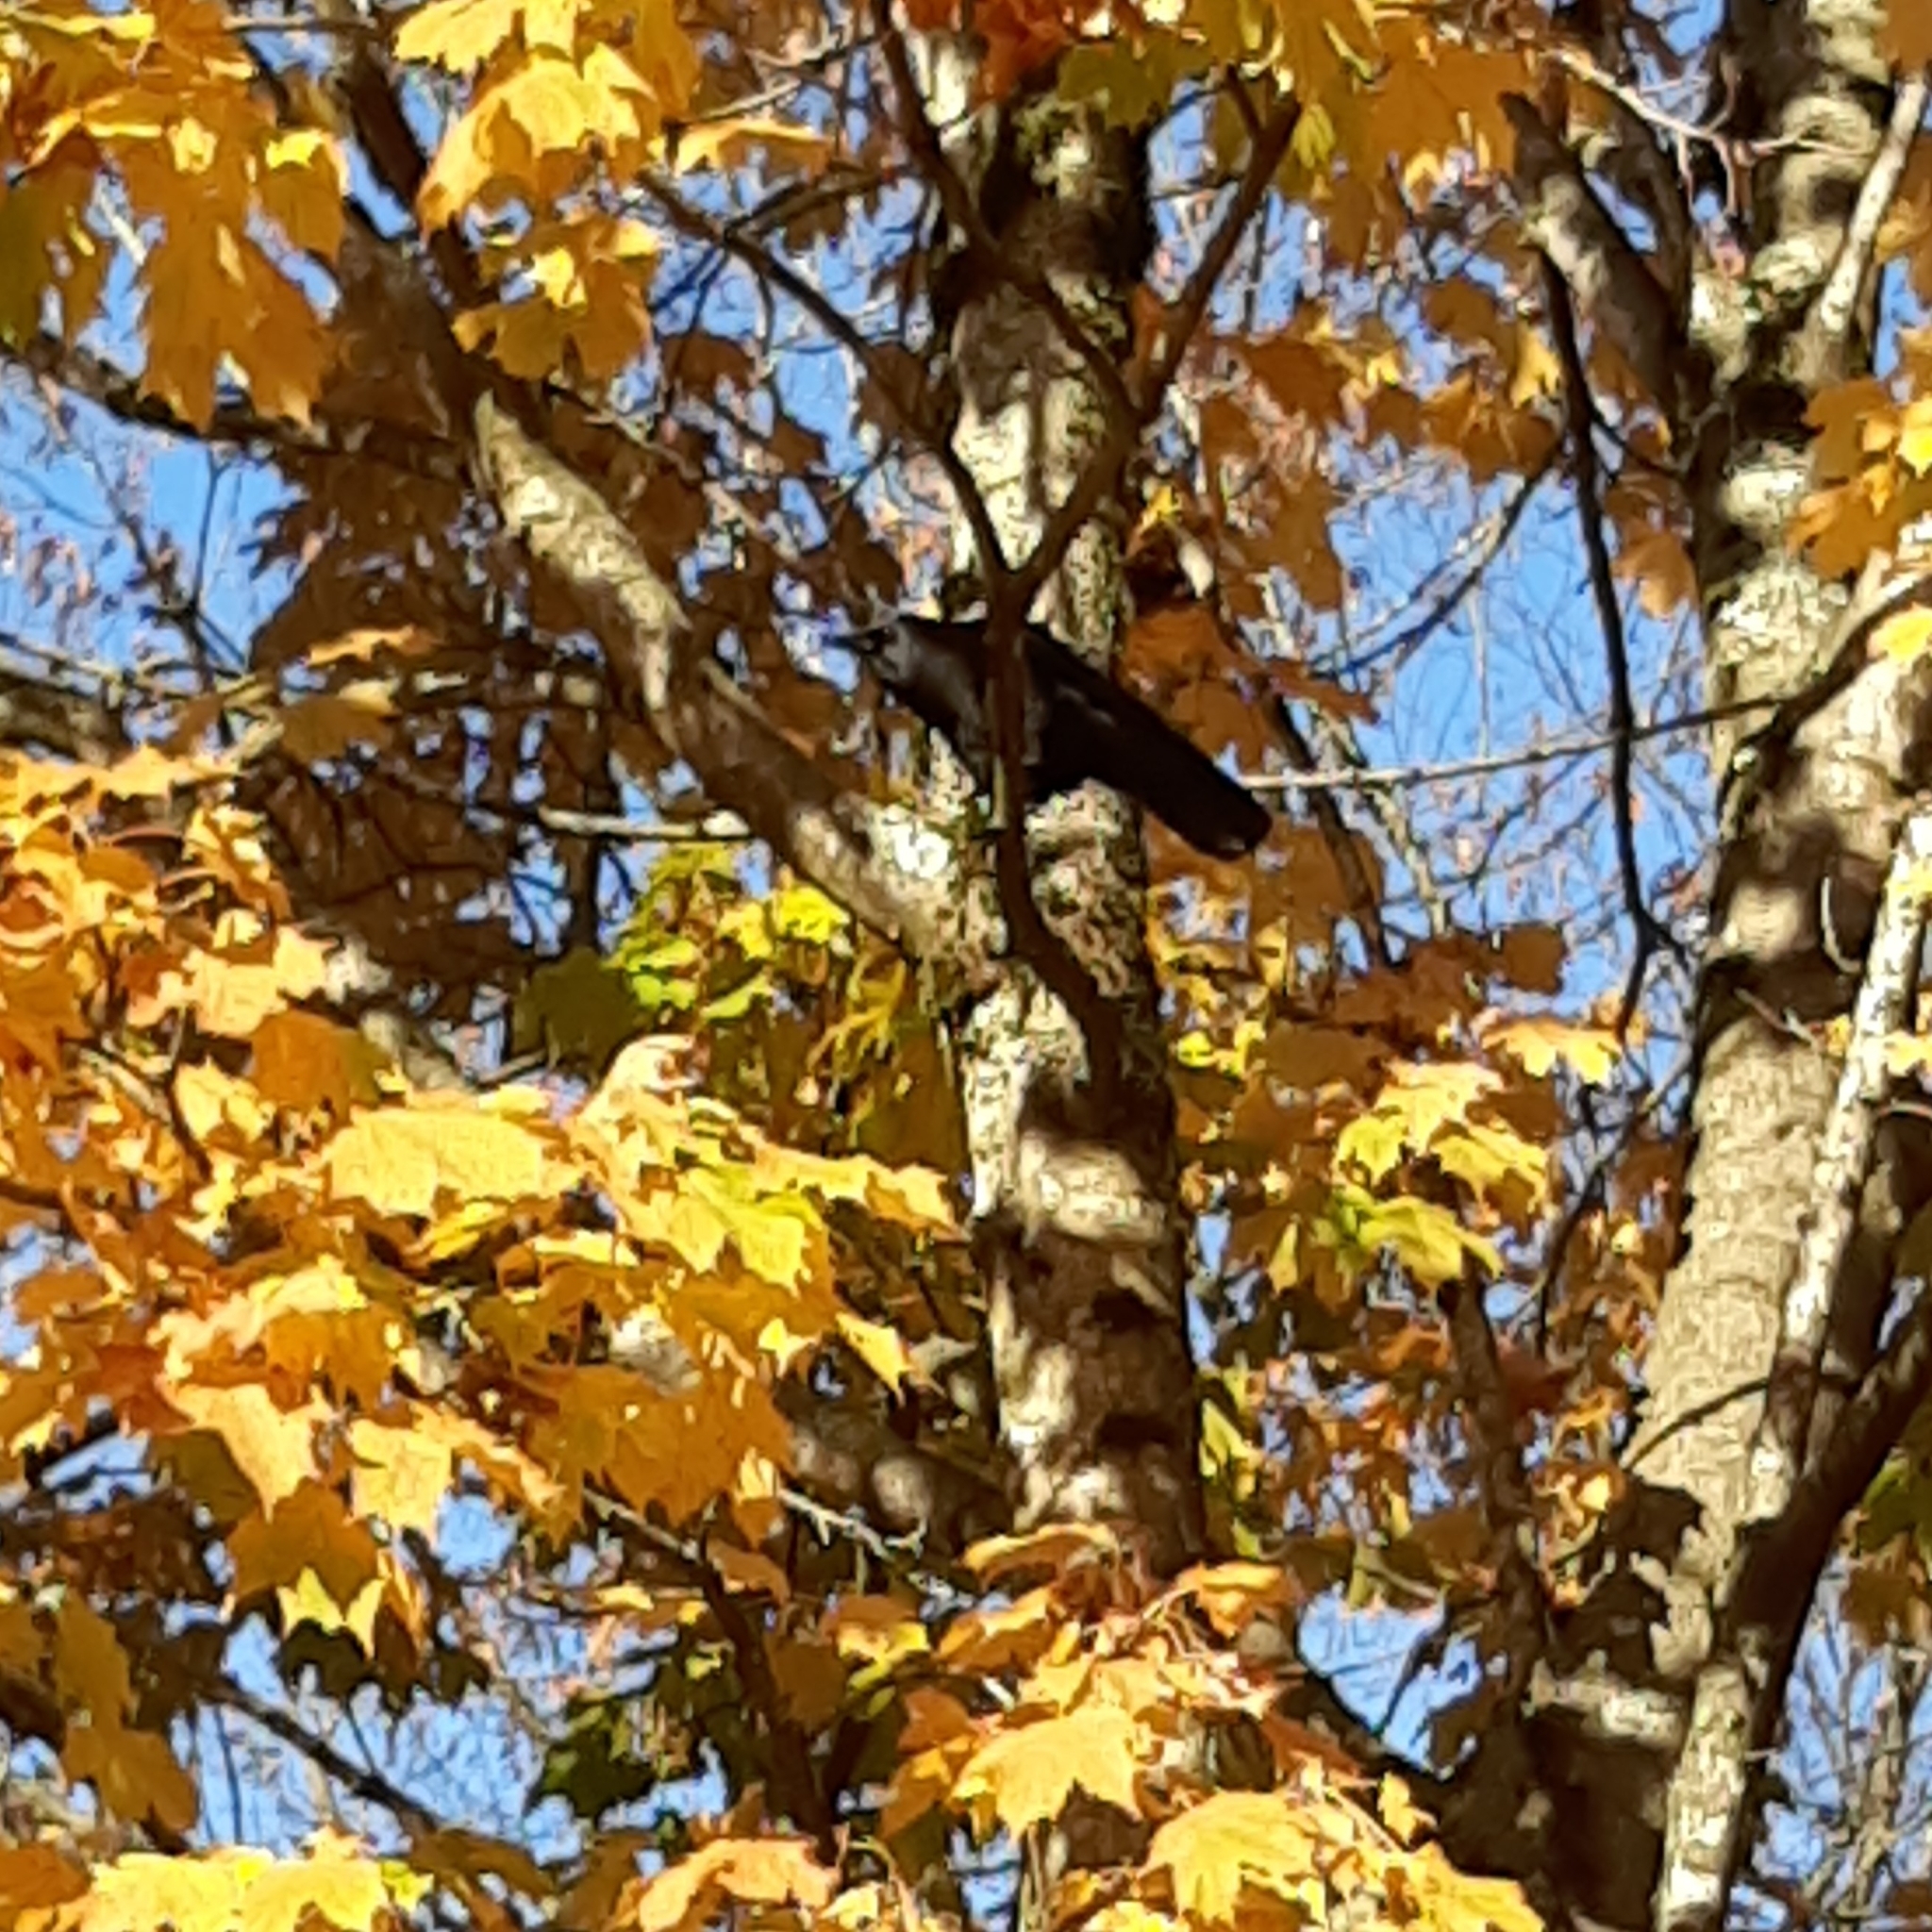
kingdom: Animalia
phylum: Chordata
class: Aves
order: Passeriformes
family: Corvidae
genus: Corvus
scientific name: Corvus brachyrhynchos
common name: American crow
